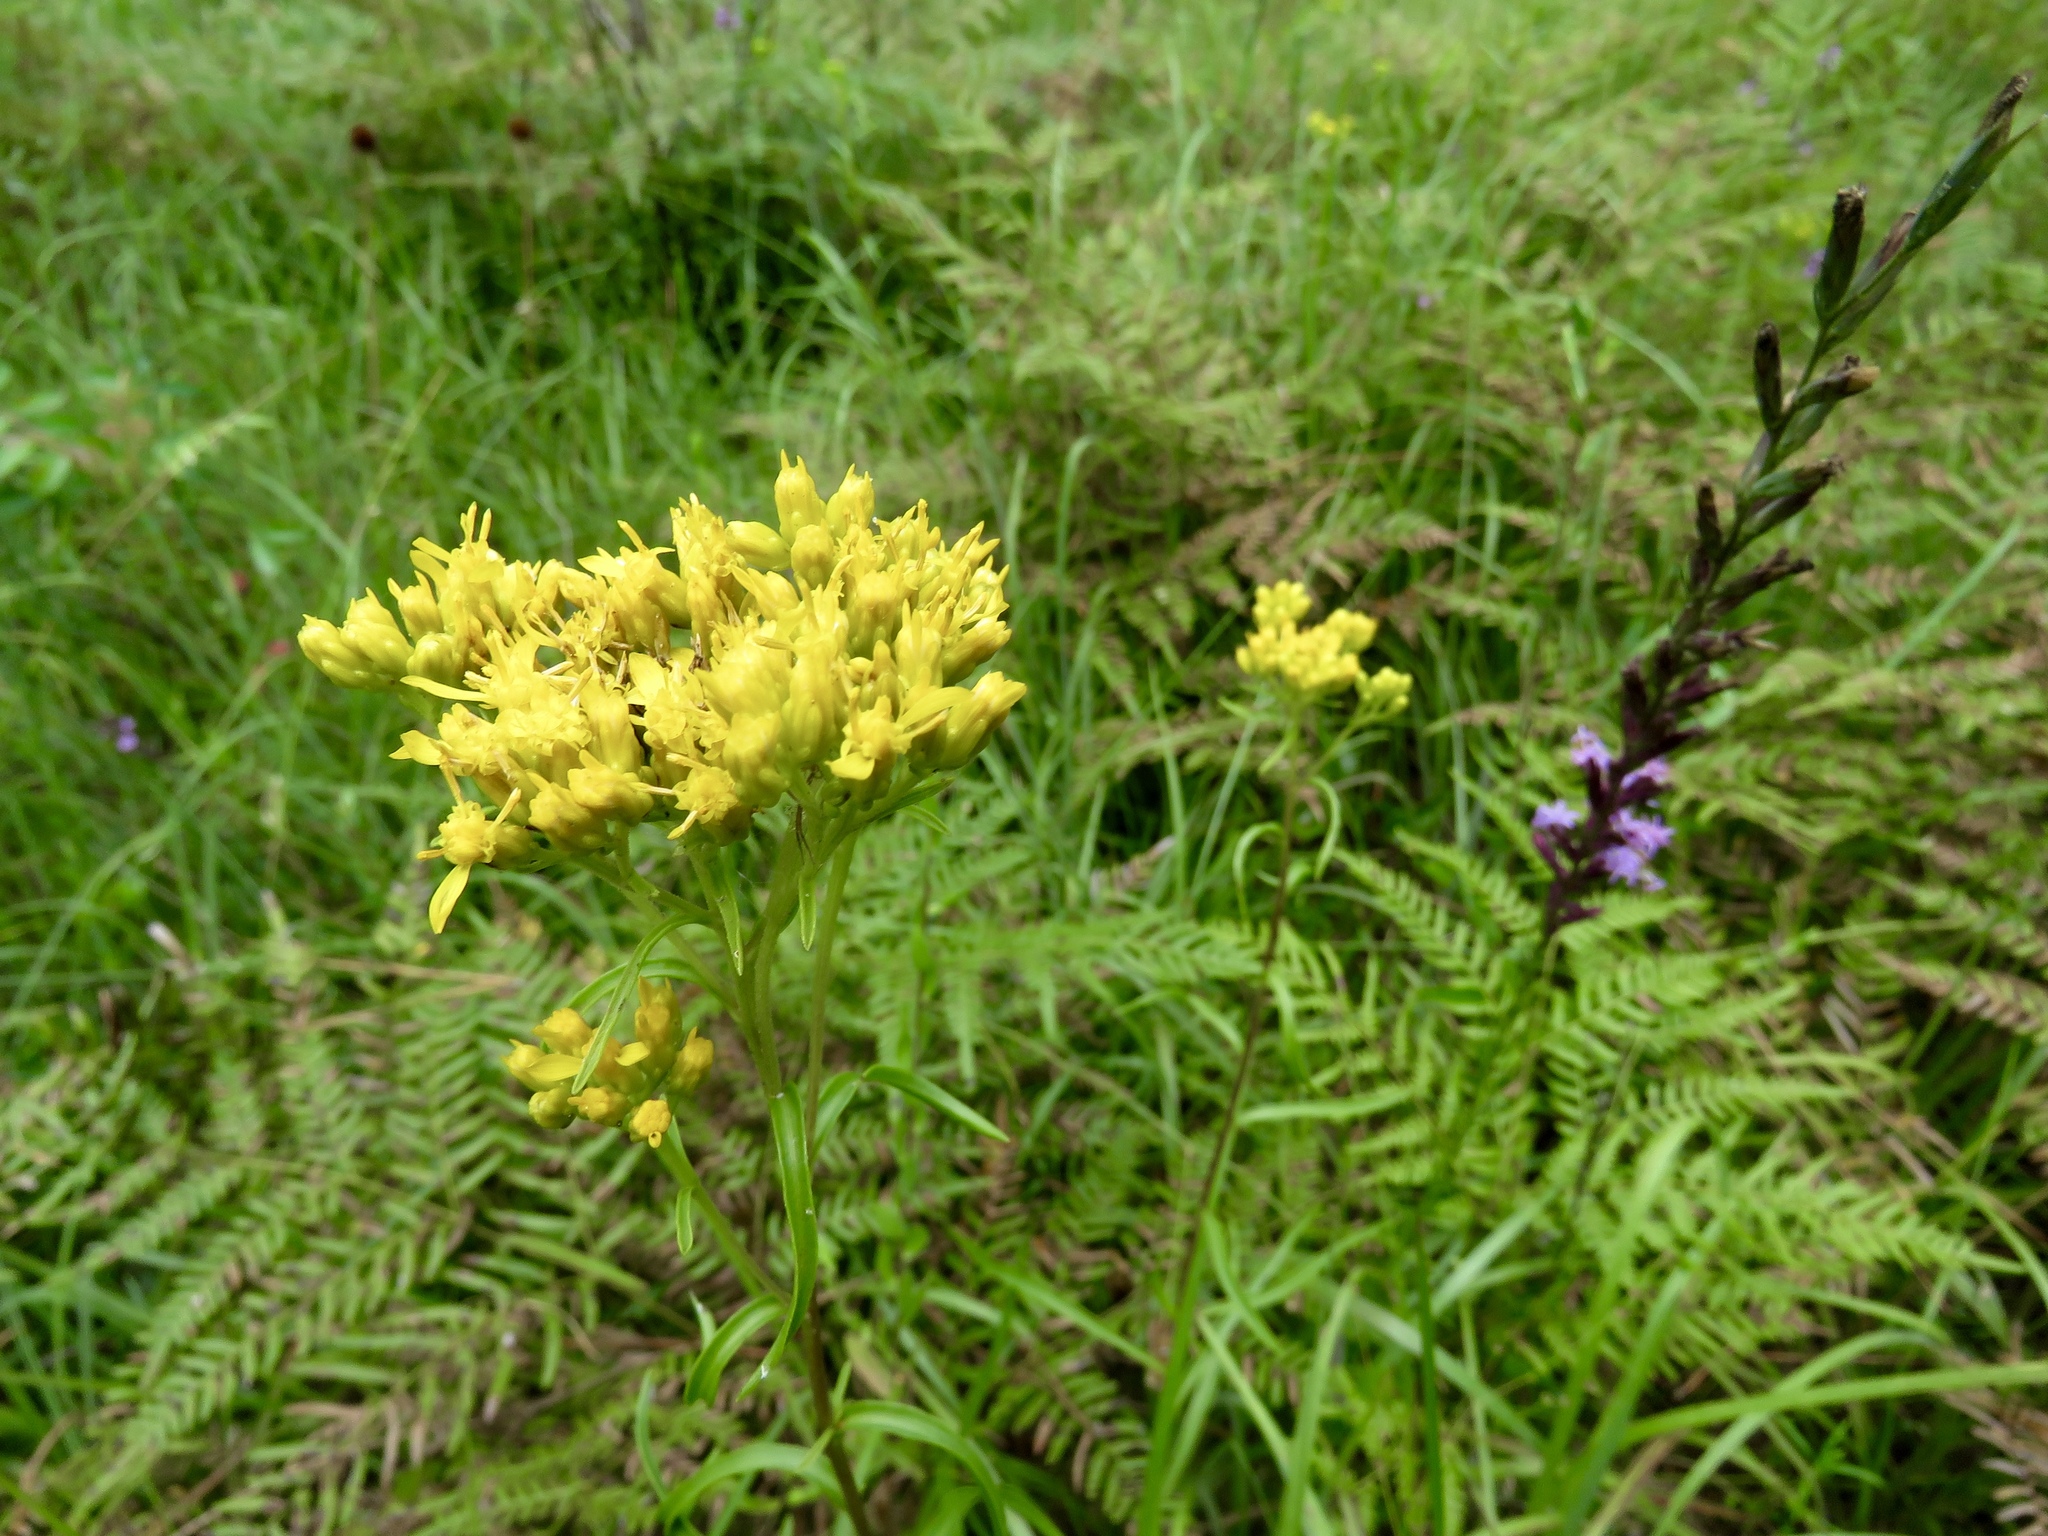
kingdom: Plantae
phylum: Tracheophyta
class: Magnoliopsida
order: Asterales
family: Asteraceae
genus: Solidago
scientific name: Solidago nitida
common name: Shiny goldenrod
